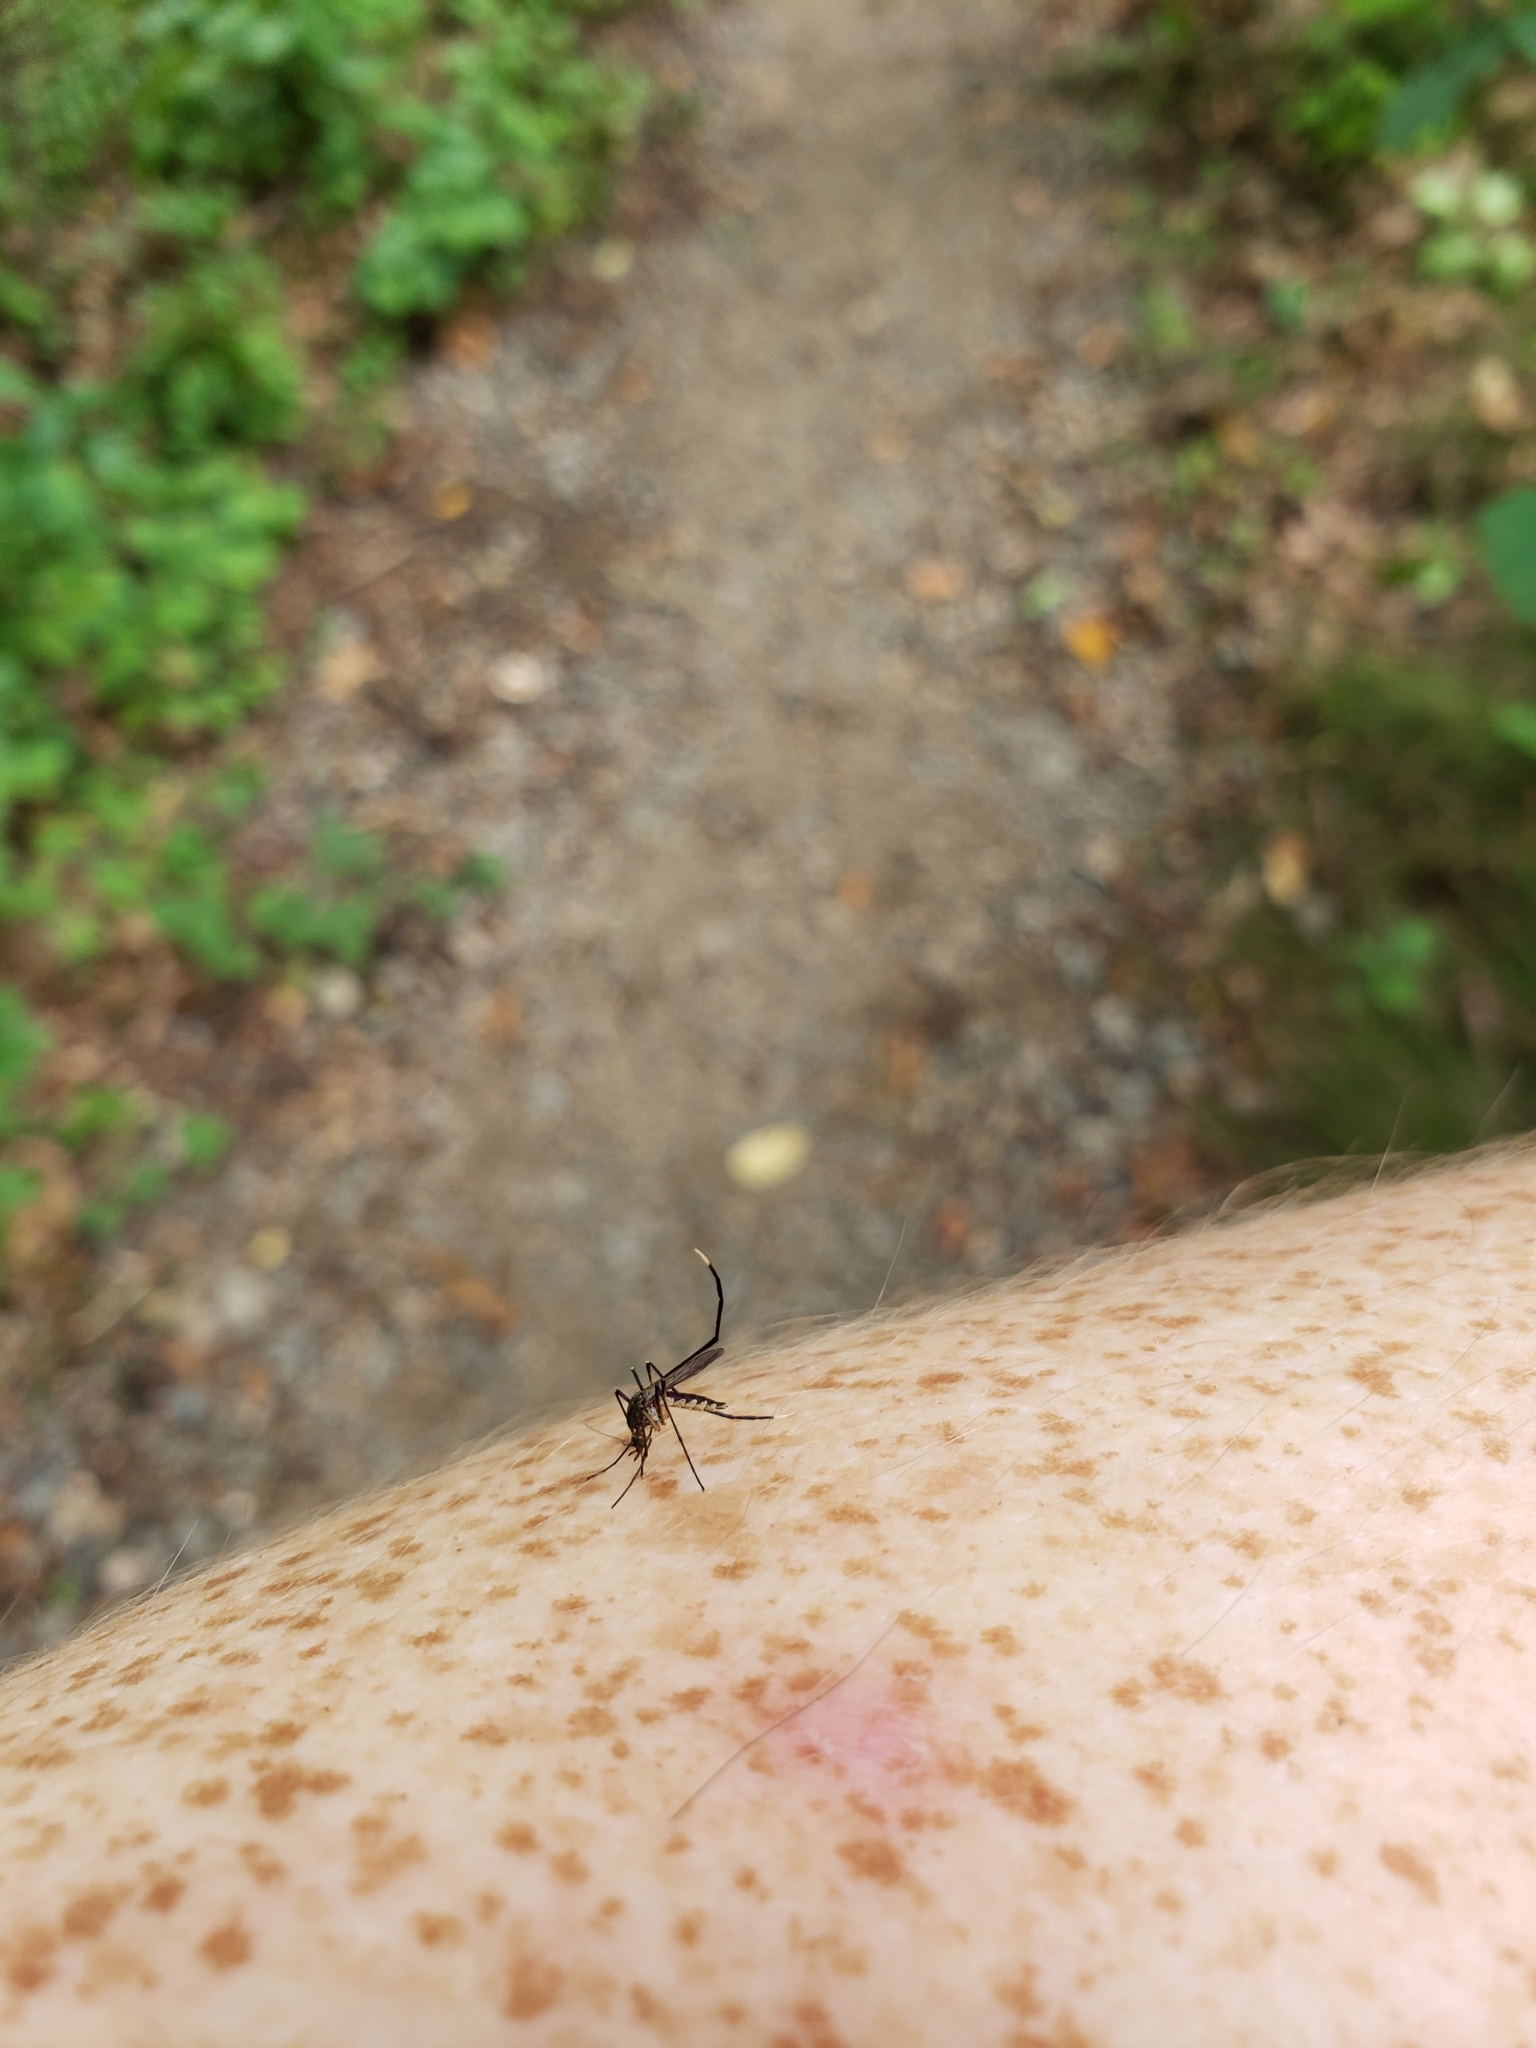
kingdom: Animalia
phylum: Arthropoda
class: Insecta
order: Diptera
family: Culicidae
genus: Psorophora
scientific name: Psorophora ferox
